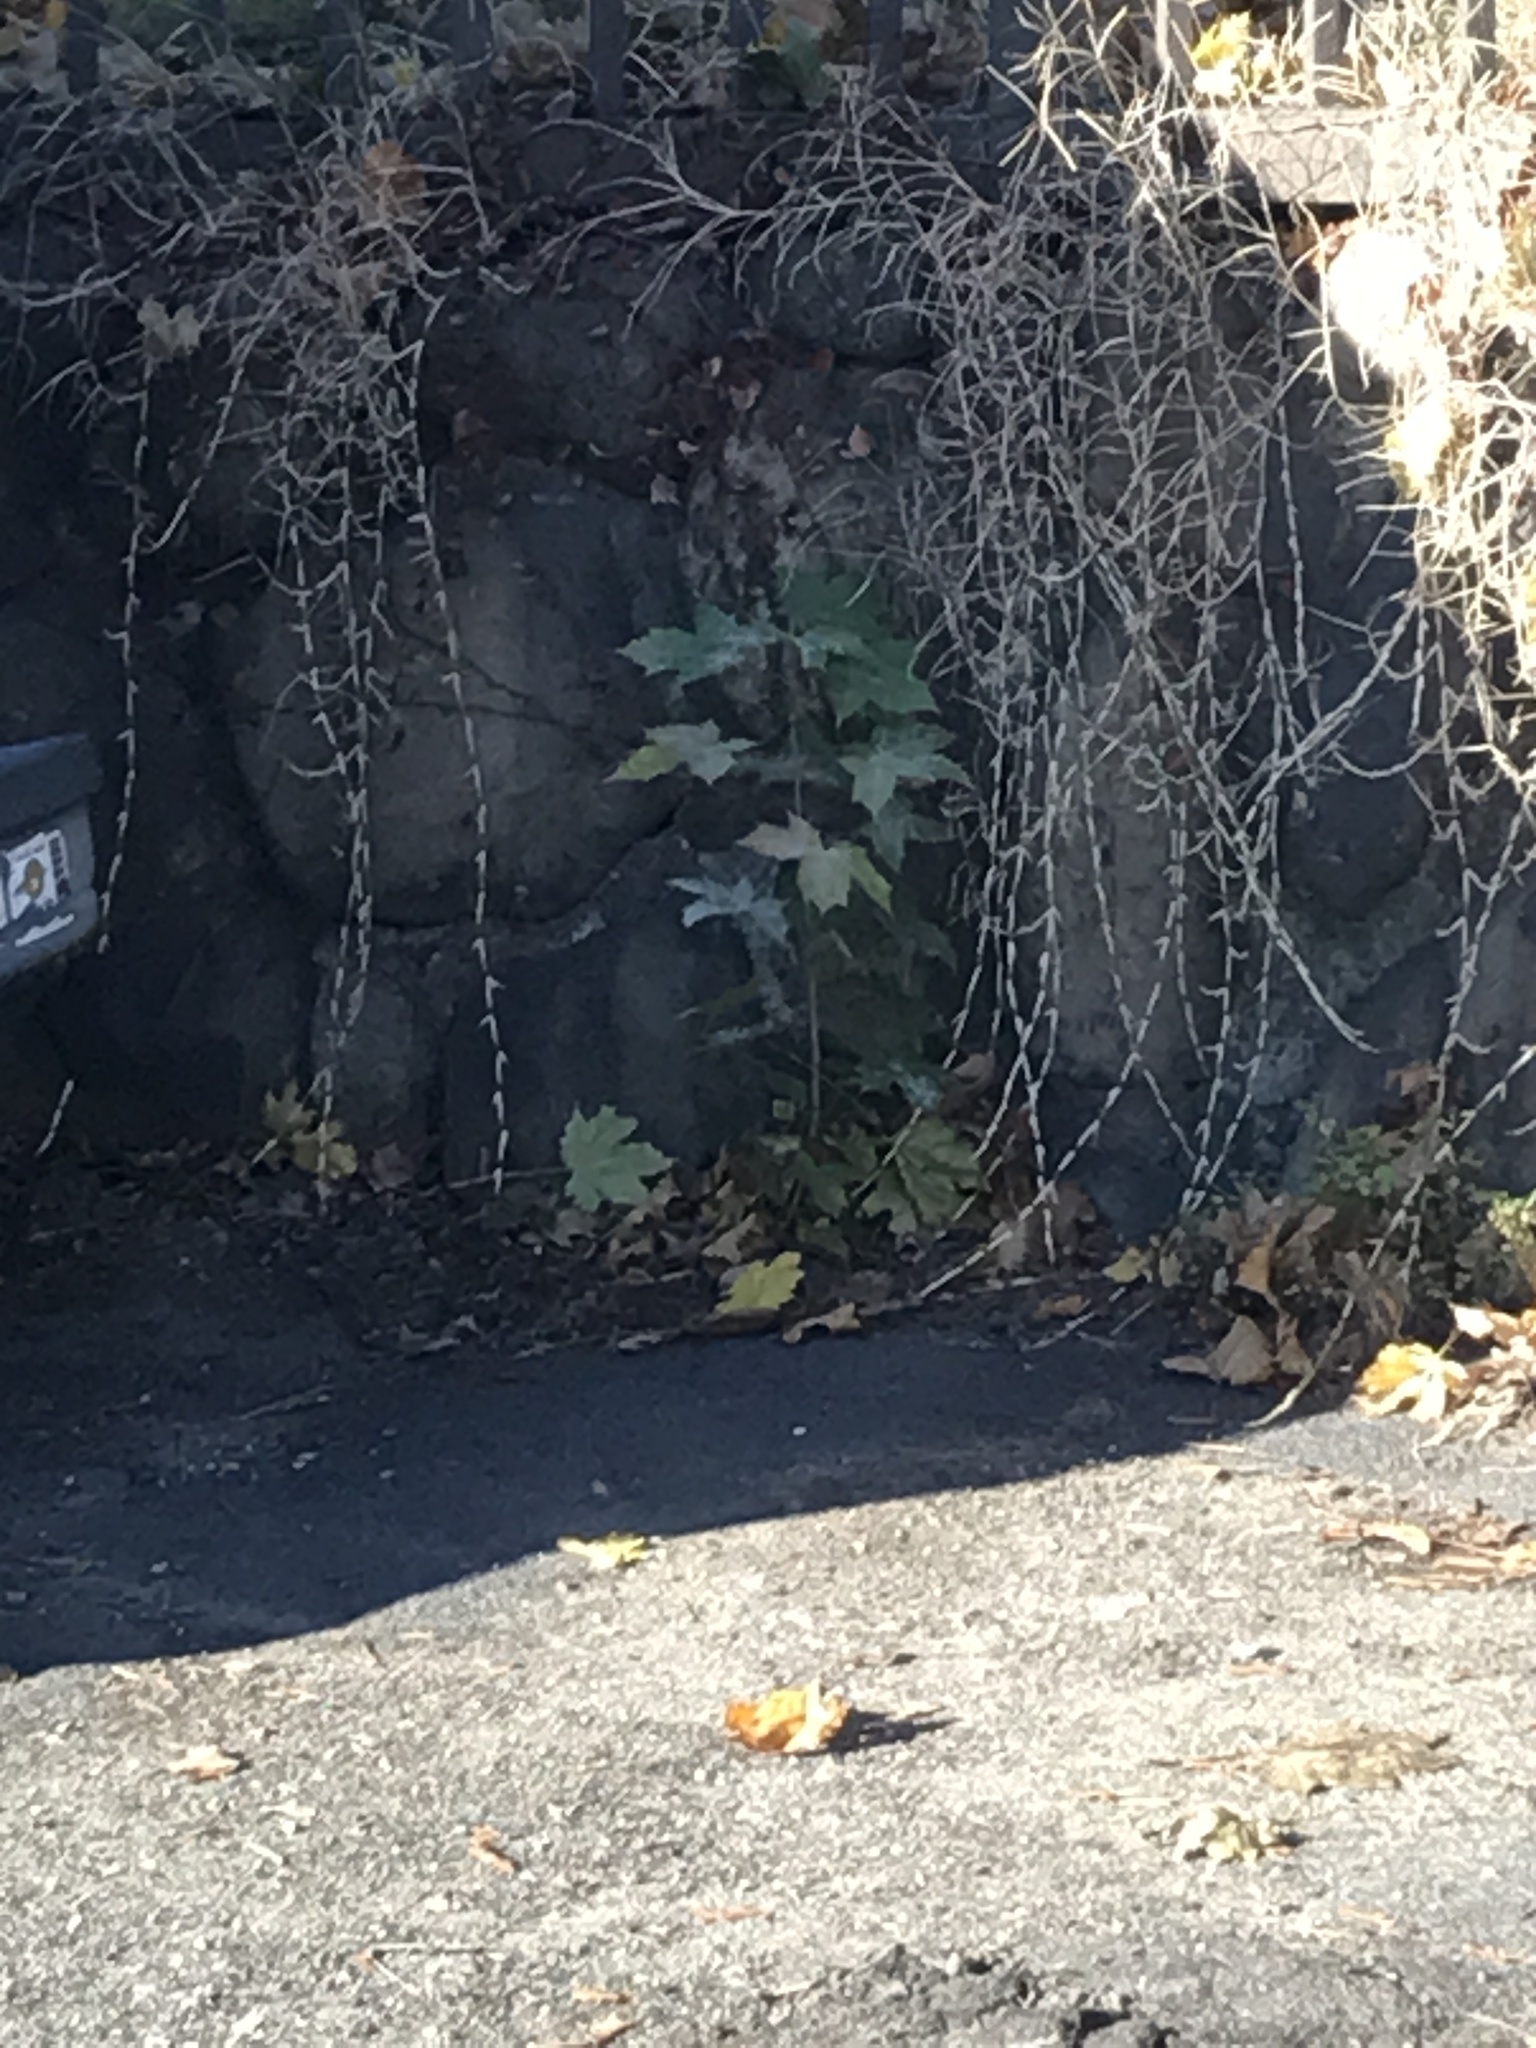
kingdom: Plantae
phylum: Tracheophyta
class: Magnoliopsida
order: Sapindales
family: Sapindaceae
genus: Acer
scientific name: Acer saccharum
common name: Sugar maple
